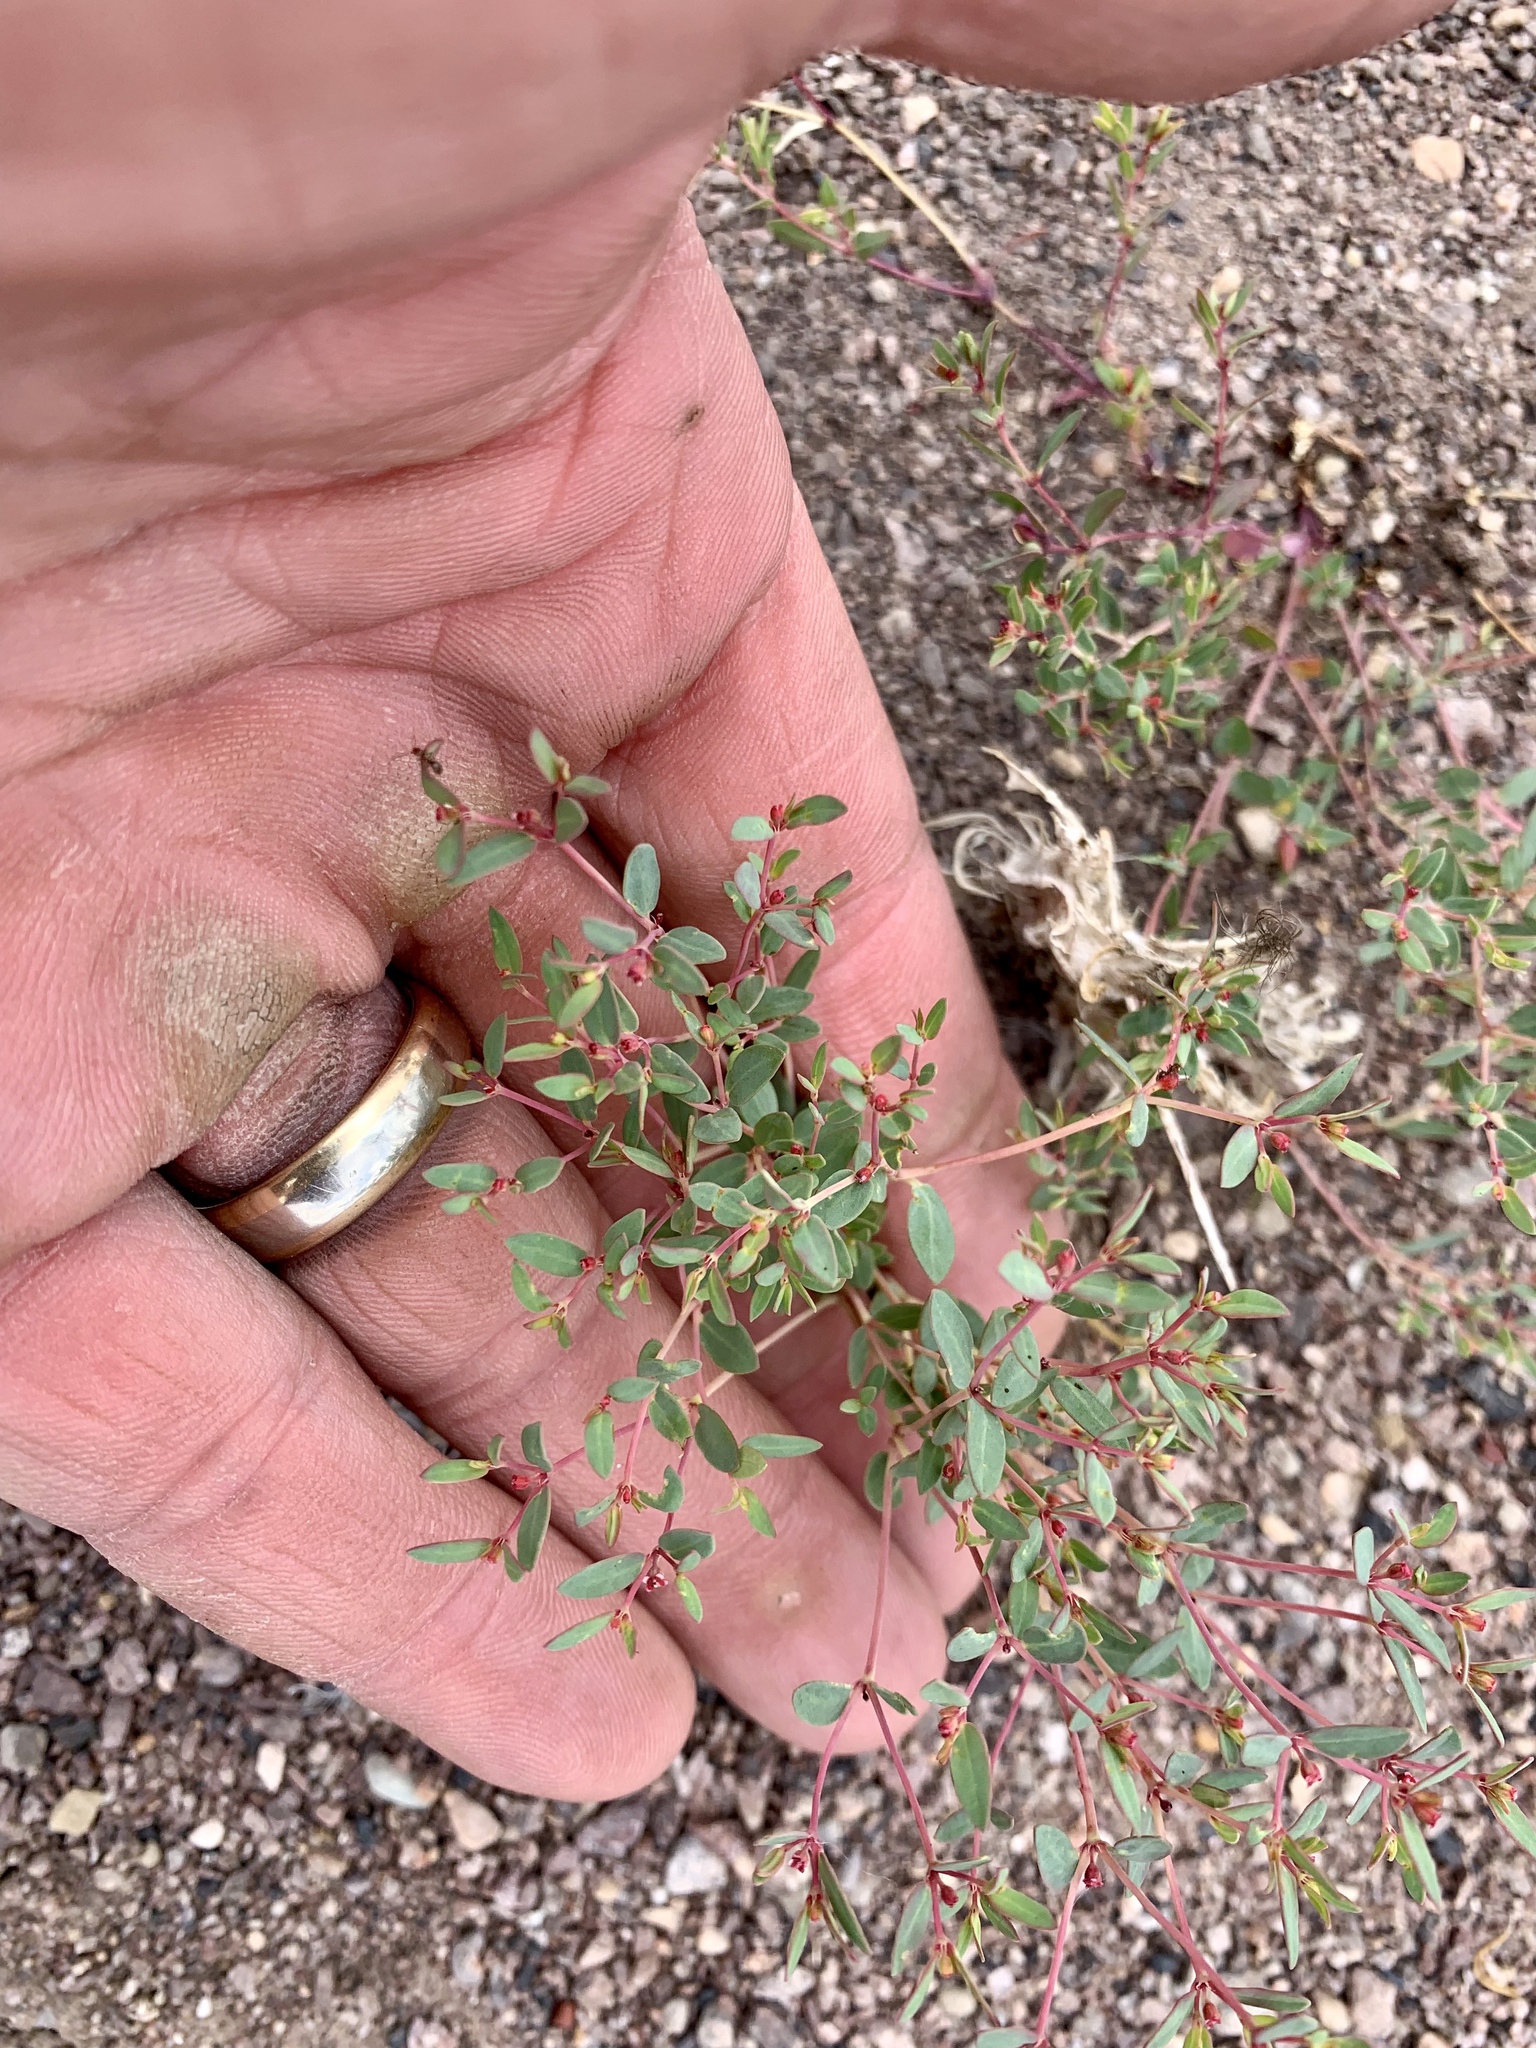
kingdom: Plantae
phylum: Tracheophyta
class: Magnoliopsida
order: Malpighiales
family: Euphorbiaceae
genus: Euphorbia
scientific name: Euphorbia fendleri
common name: Fendler's euphorbia
